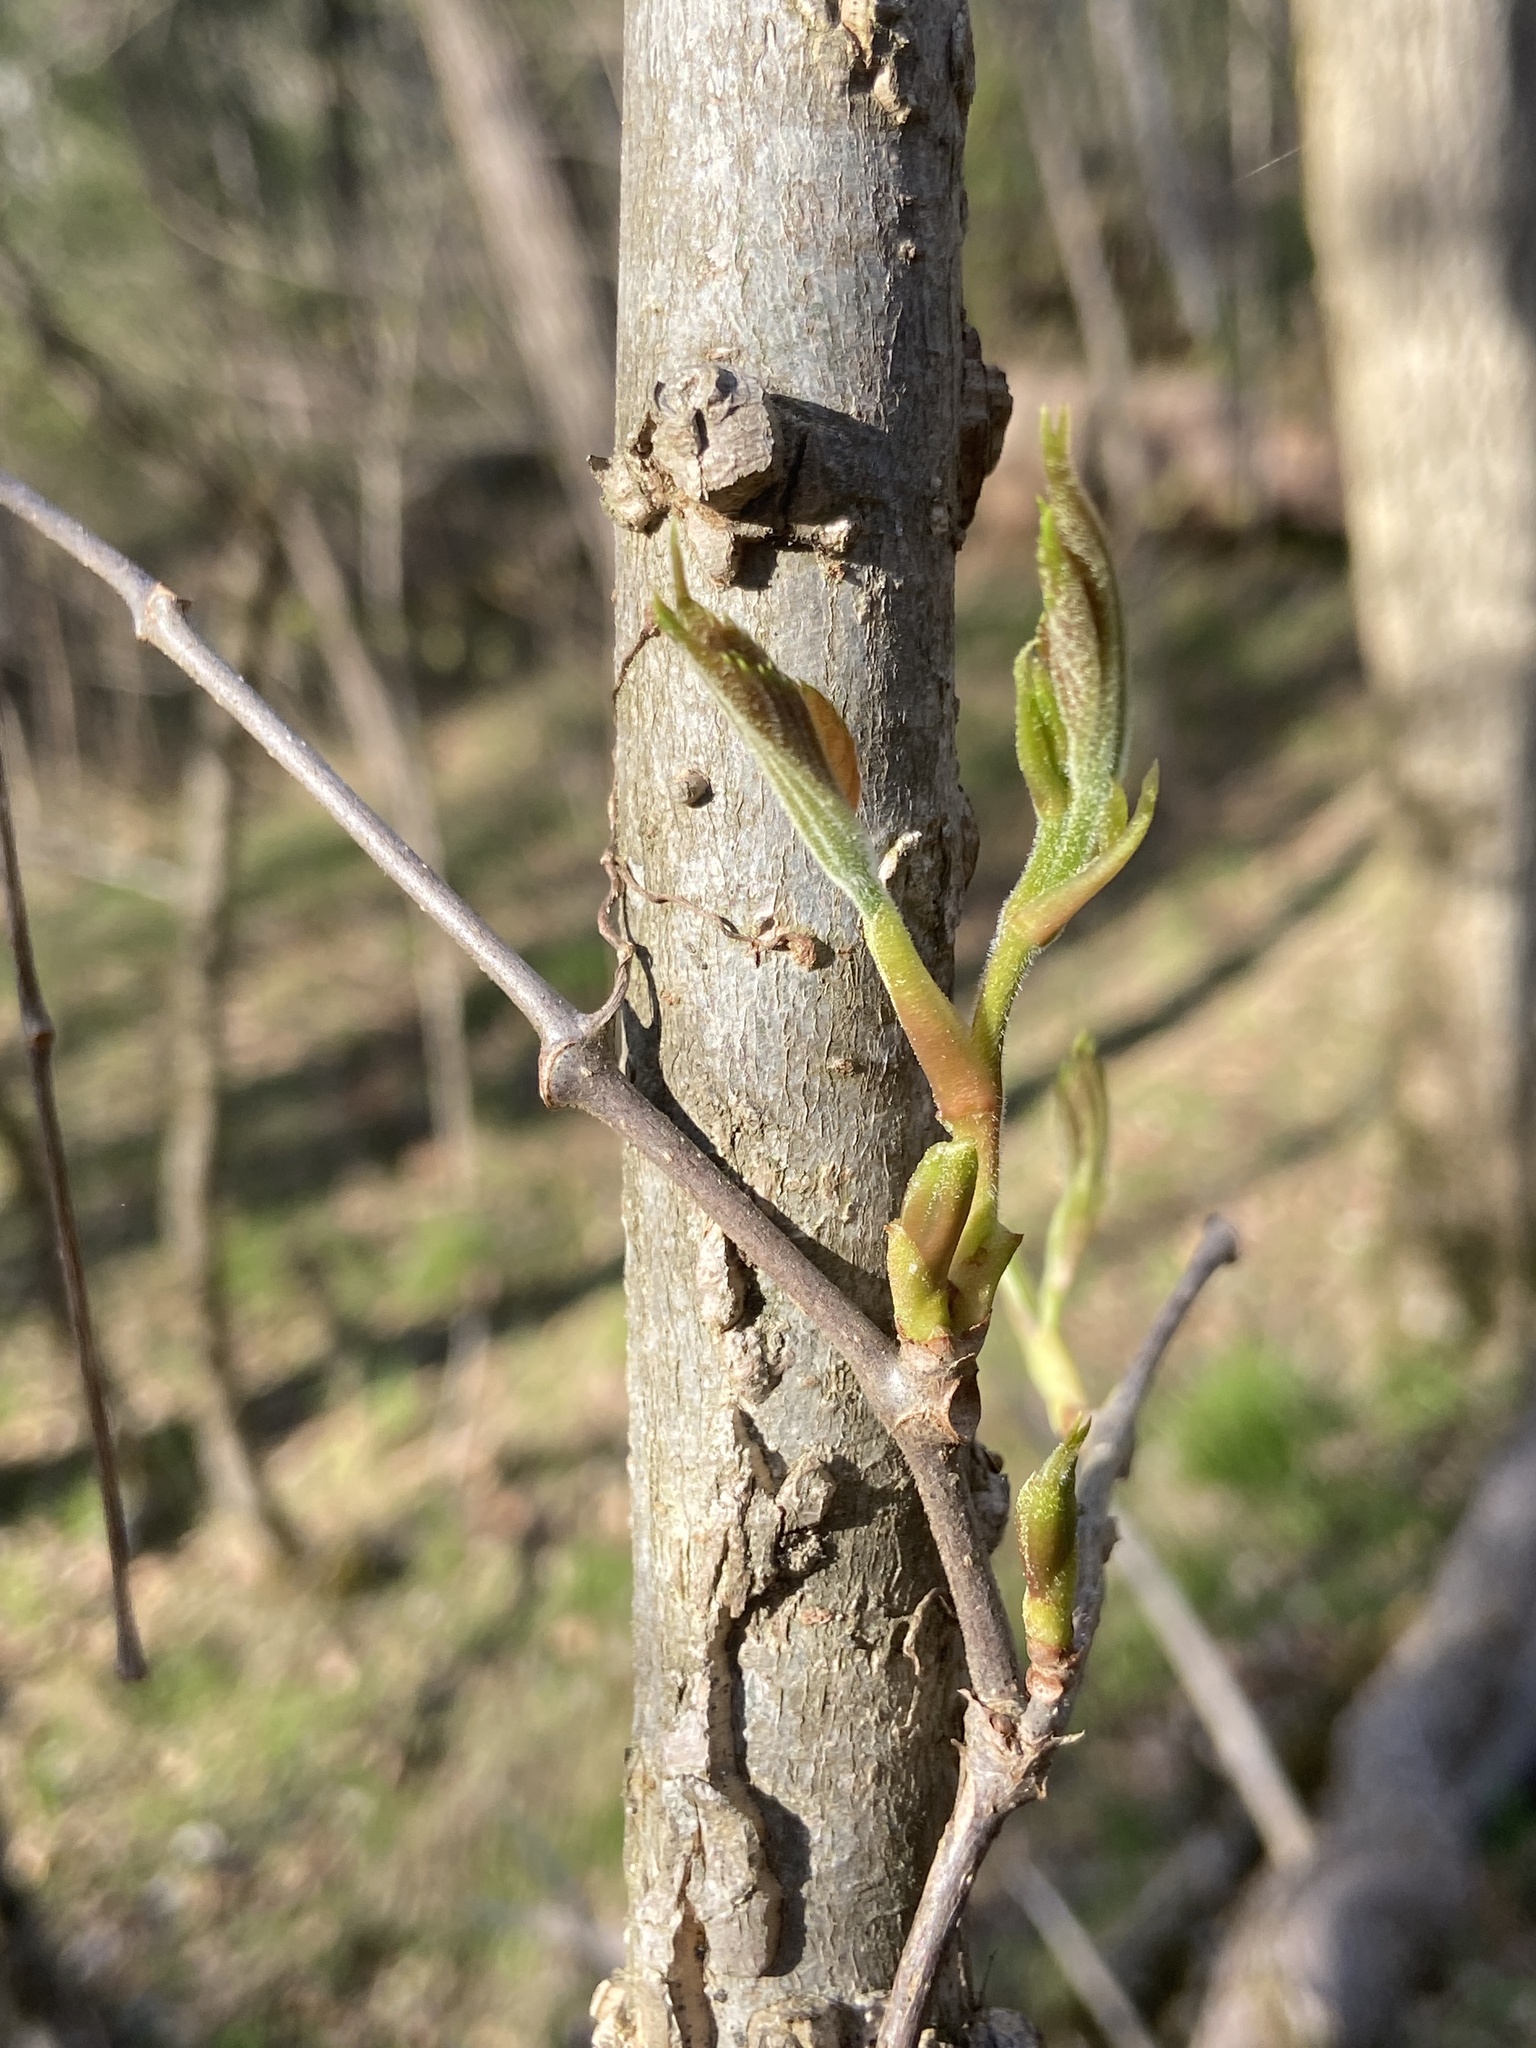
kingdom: Plantae
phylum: Tracheophyta
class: Magnoliopsida
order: Vitales
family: Vitaceae
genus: Parthenocissus
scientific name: Parthenocissus quinquefolia
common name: Virginia-creeper
